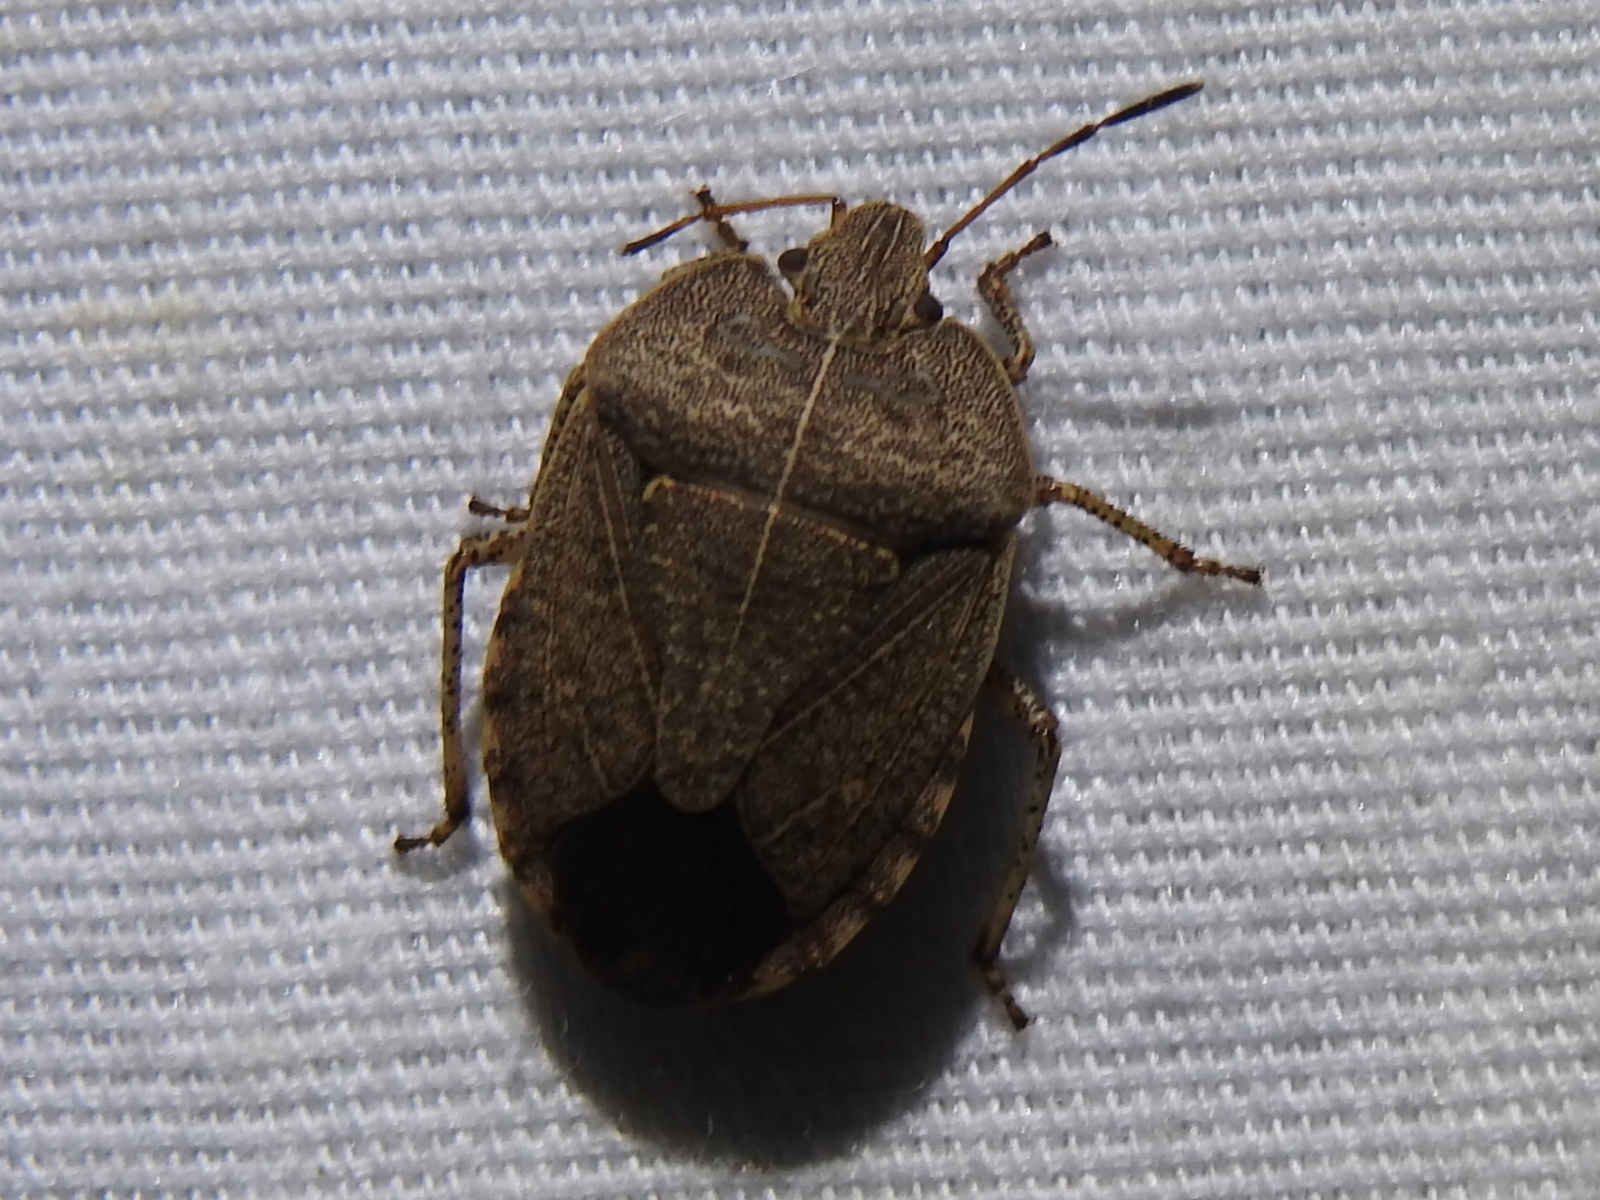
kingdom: Animalia
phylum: Arthropoda
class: Insecta
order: Hemiptera
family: Pentatomidae
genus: Menecles
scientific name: Menecles insertus
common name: Elf shoe stink bug
